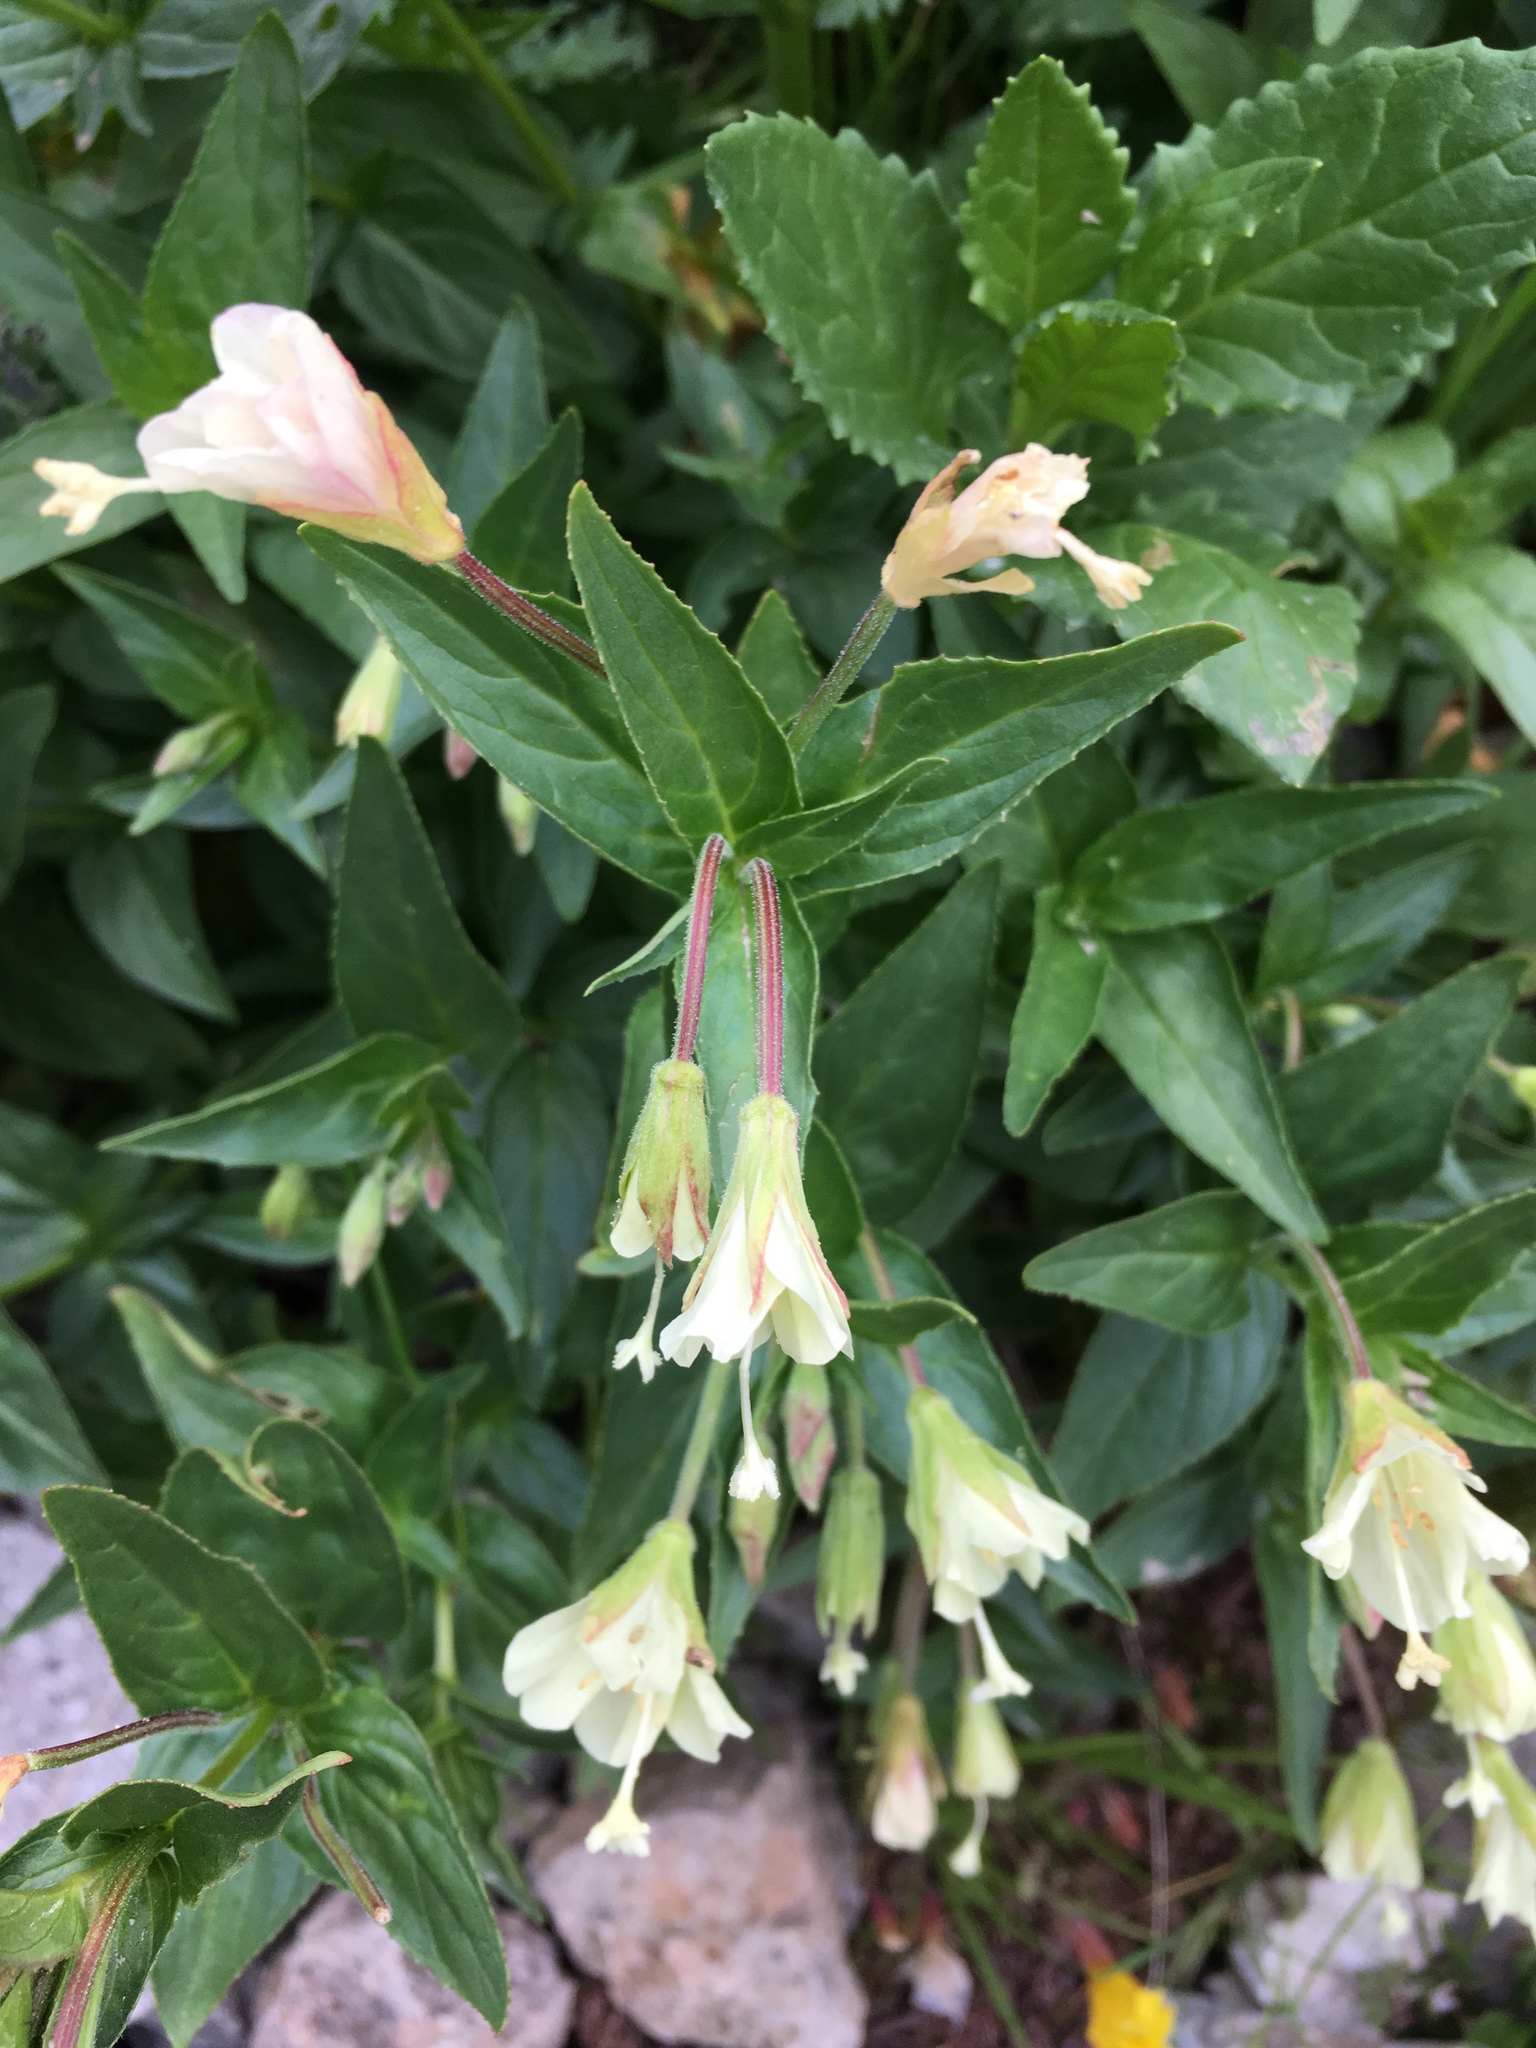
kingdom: Plantae
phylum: Tracheophyta
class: Magnoliopsida
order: Myrtales
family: Onagraceae
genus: Epilobium
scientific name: Epilobium luteum
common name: Yellow willowherb
